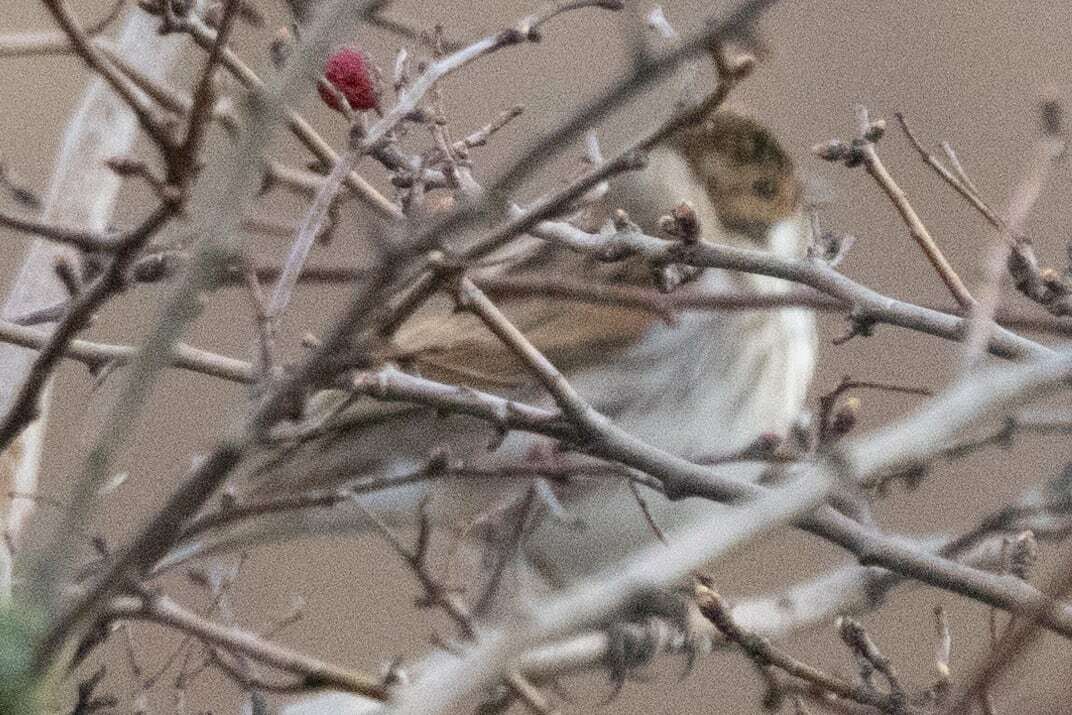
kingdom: Animalia
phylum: Chordata
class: Aves
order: Passeriformes
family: Emberizidae
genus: Emberiza
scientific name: Emberiza schoeniclus
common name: Reed bunting
